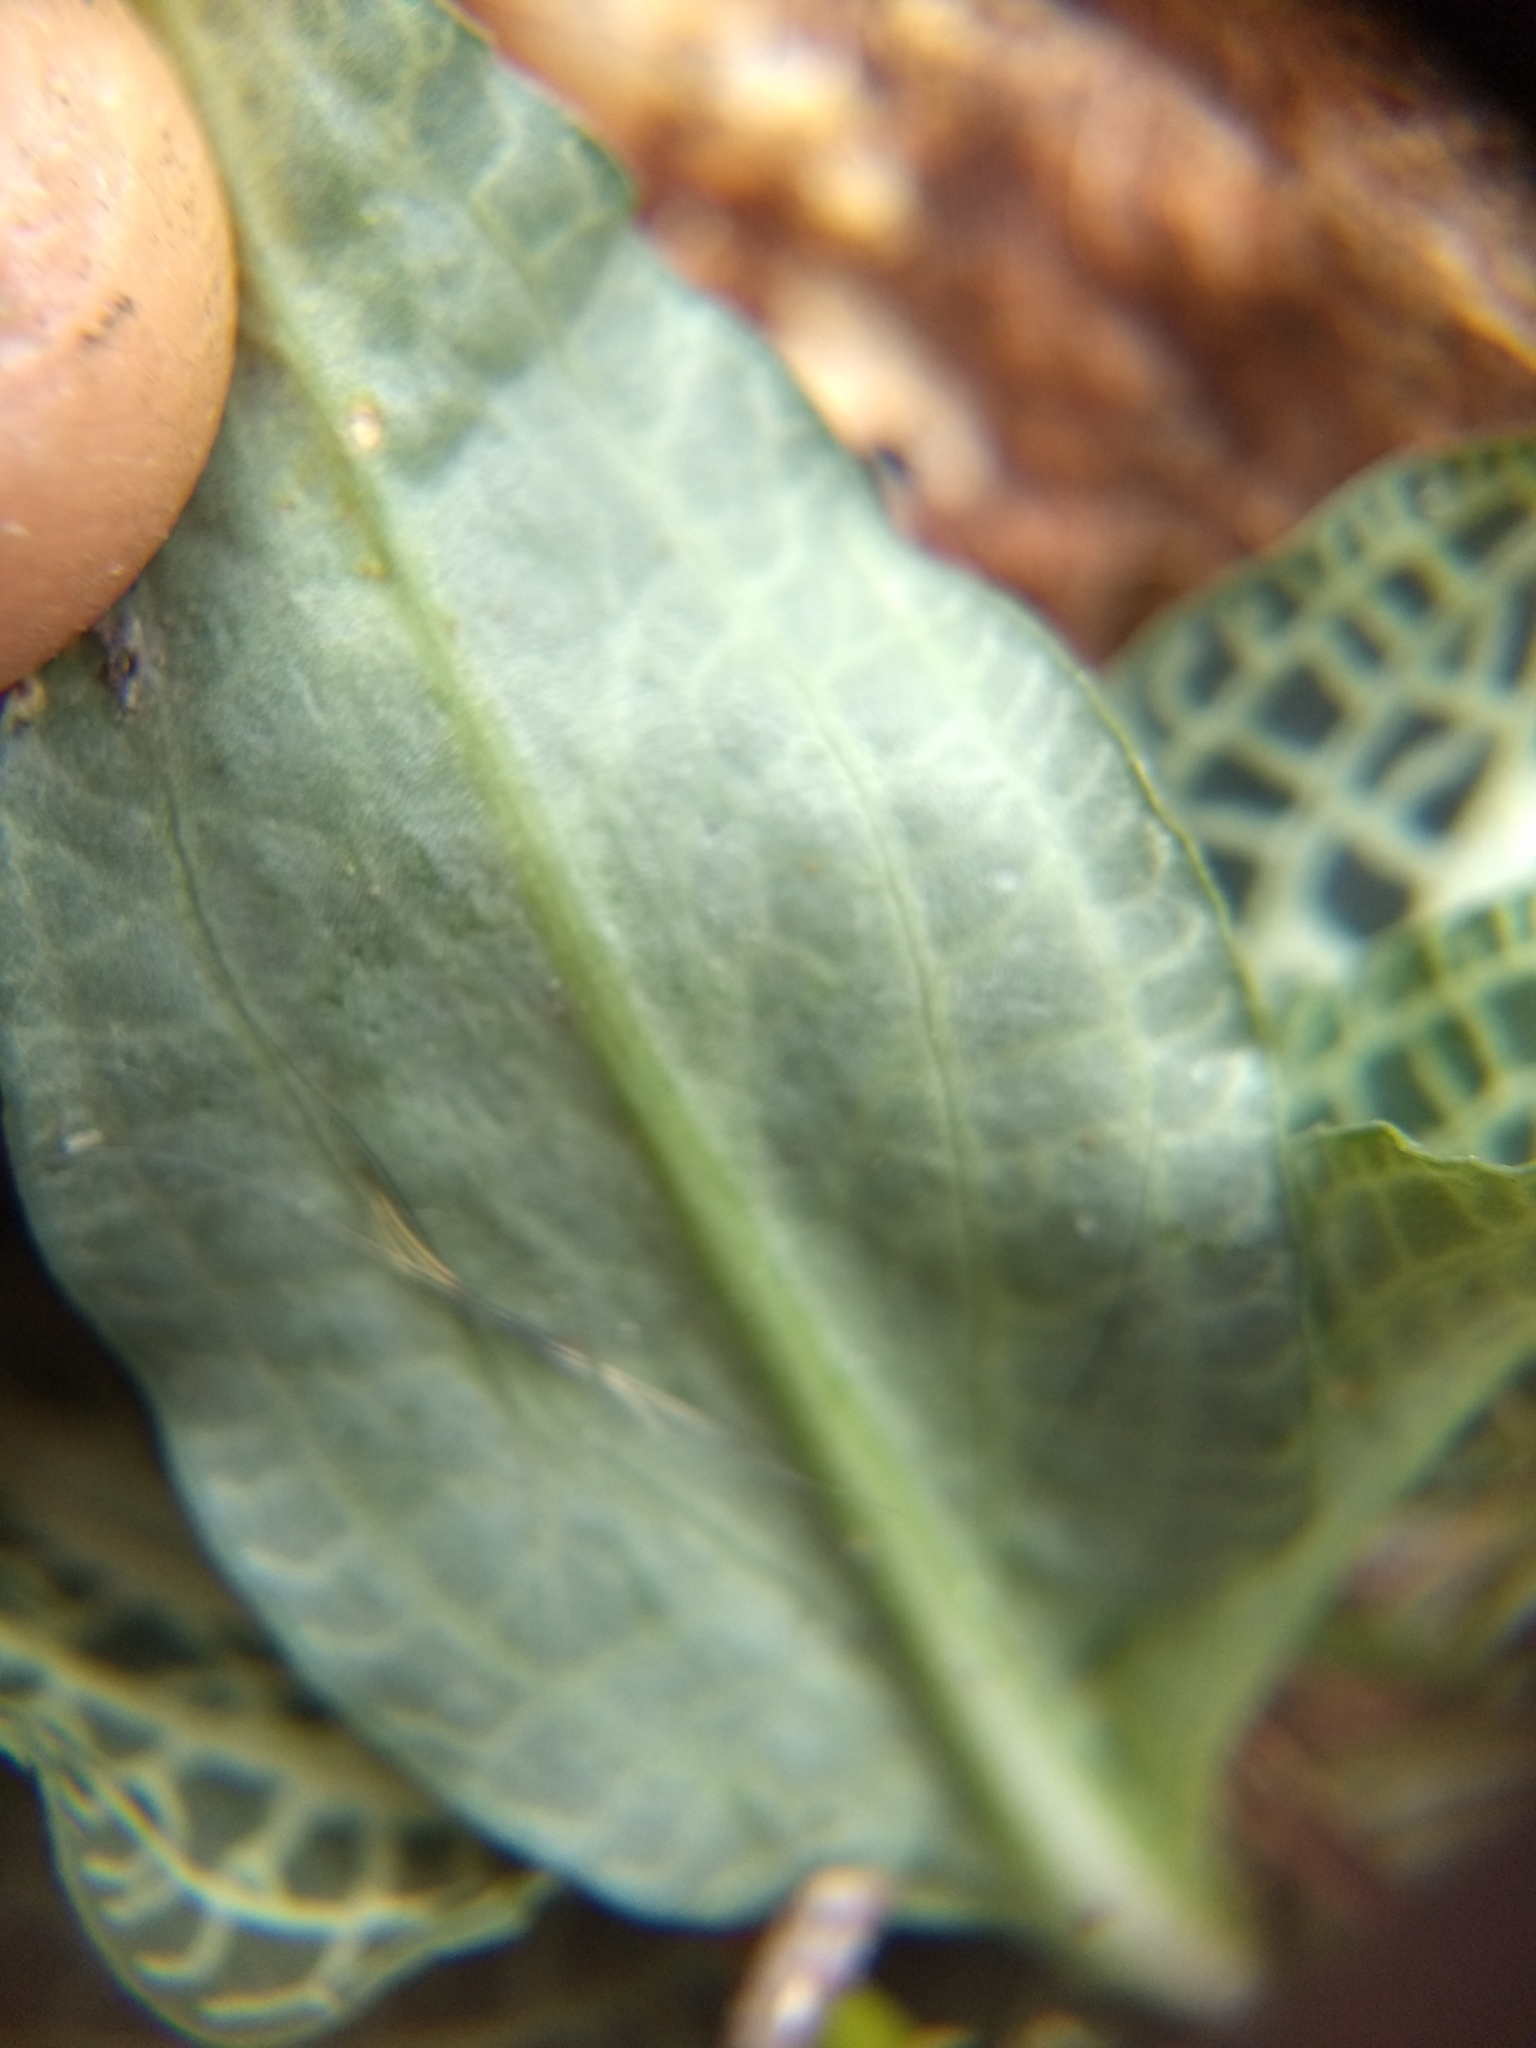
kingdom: Plantae
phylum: Tracheophyta
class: Liliopsida
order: Asparagales
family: Orchidaceae
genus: Goodyera
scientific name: Goodyera pubescens
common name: Downy rattlesnake-plantain
